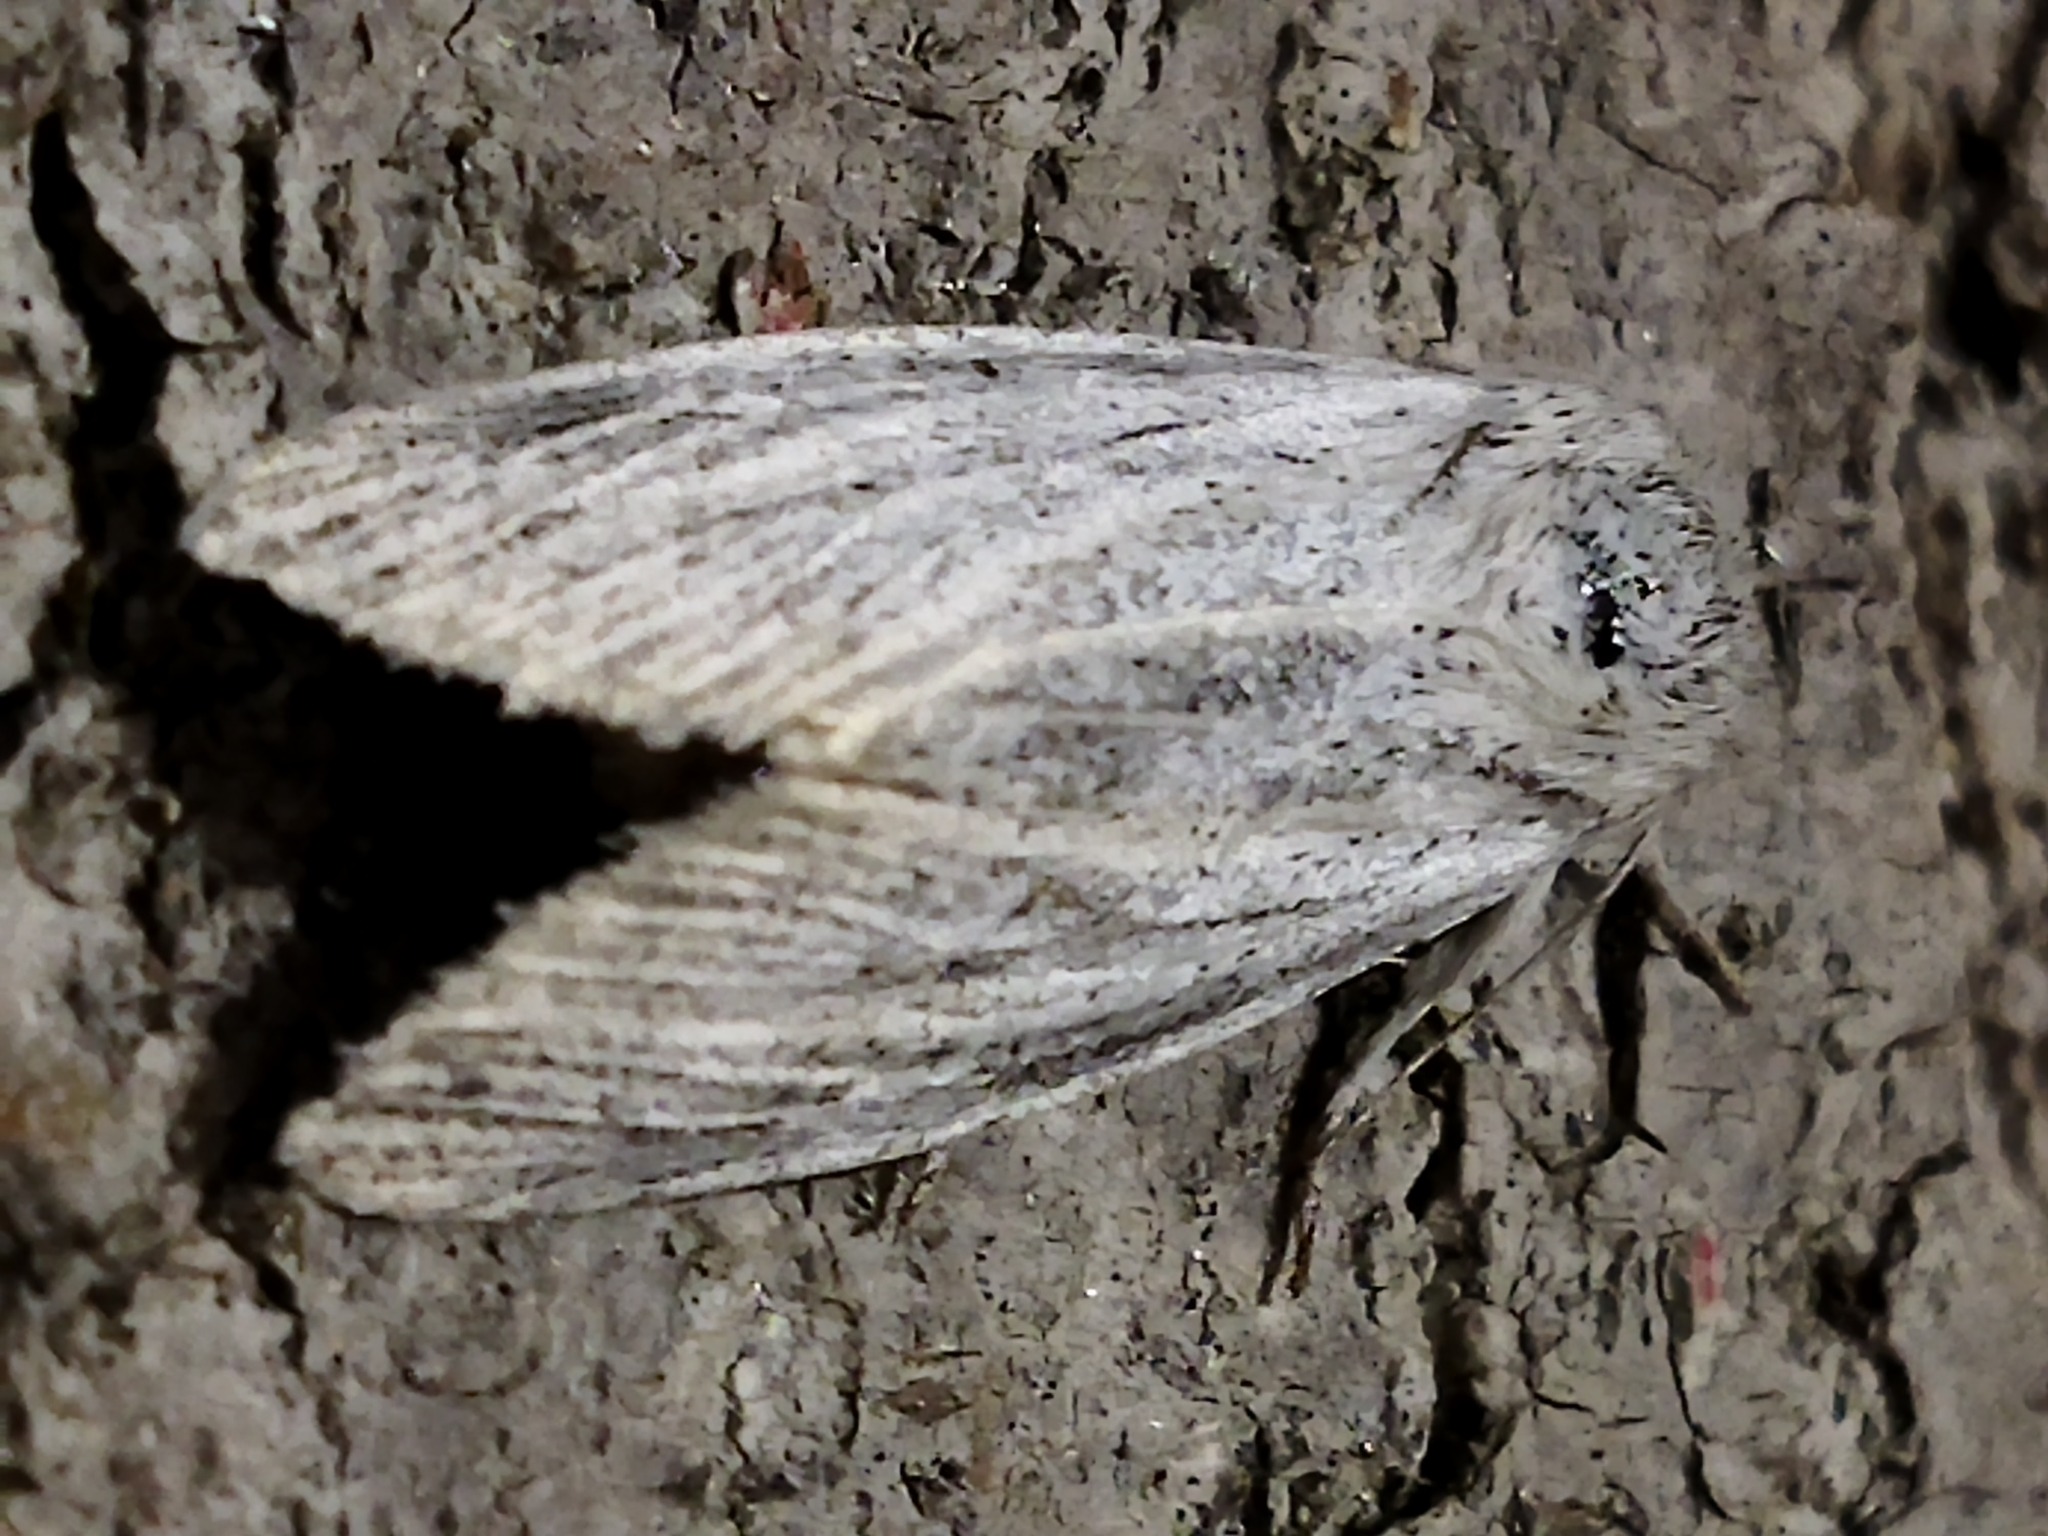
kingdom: Animalia
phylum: Arthropoda
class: Insecta
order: Lepidoptera
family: Noctuidae
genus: Acronicta
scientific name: Acronicta nervosa
